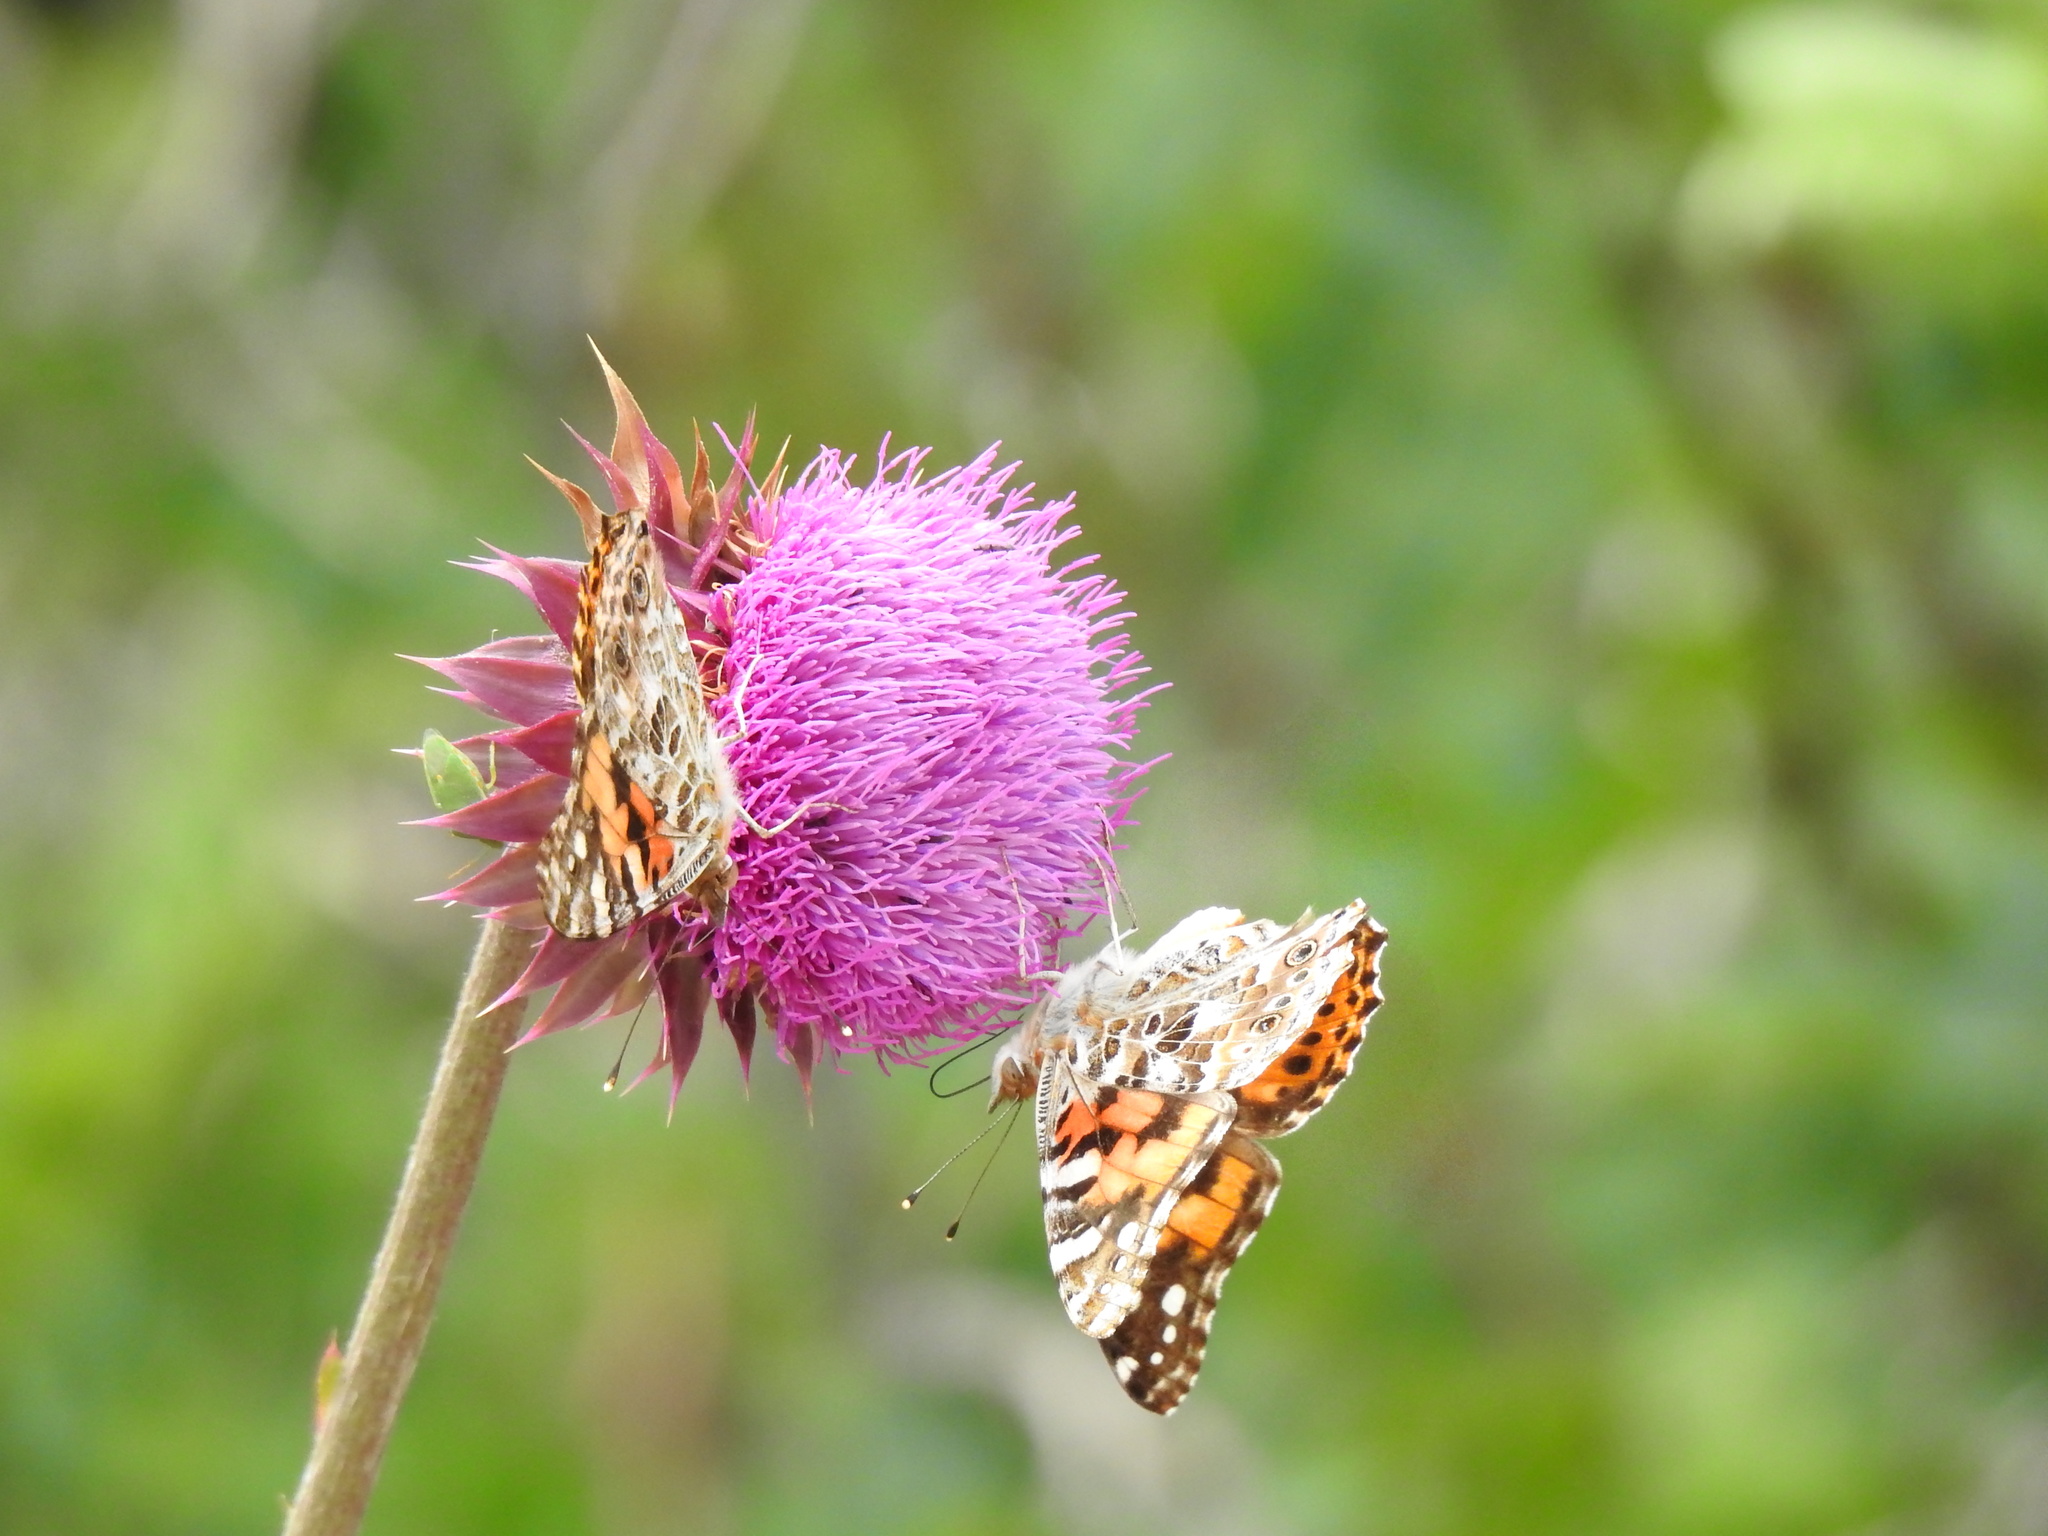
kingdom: Animalia
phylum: Arthropoda
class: Insecta
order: Lepidoptera
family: Nymphalidae
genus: Vanessa
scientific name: Vanessa cardui
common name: Painted lady
